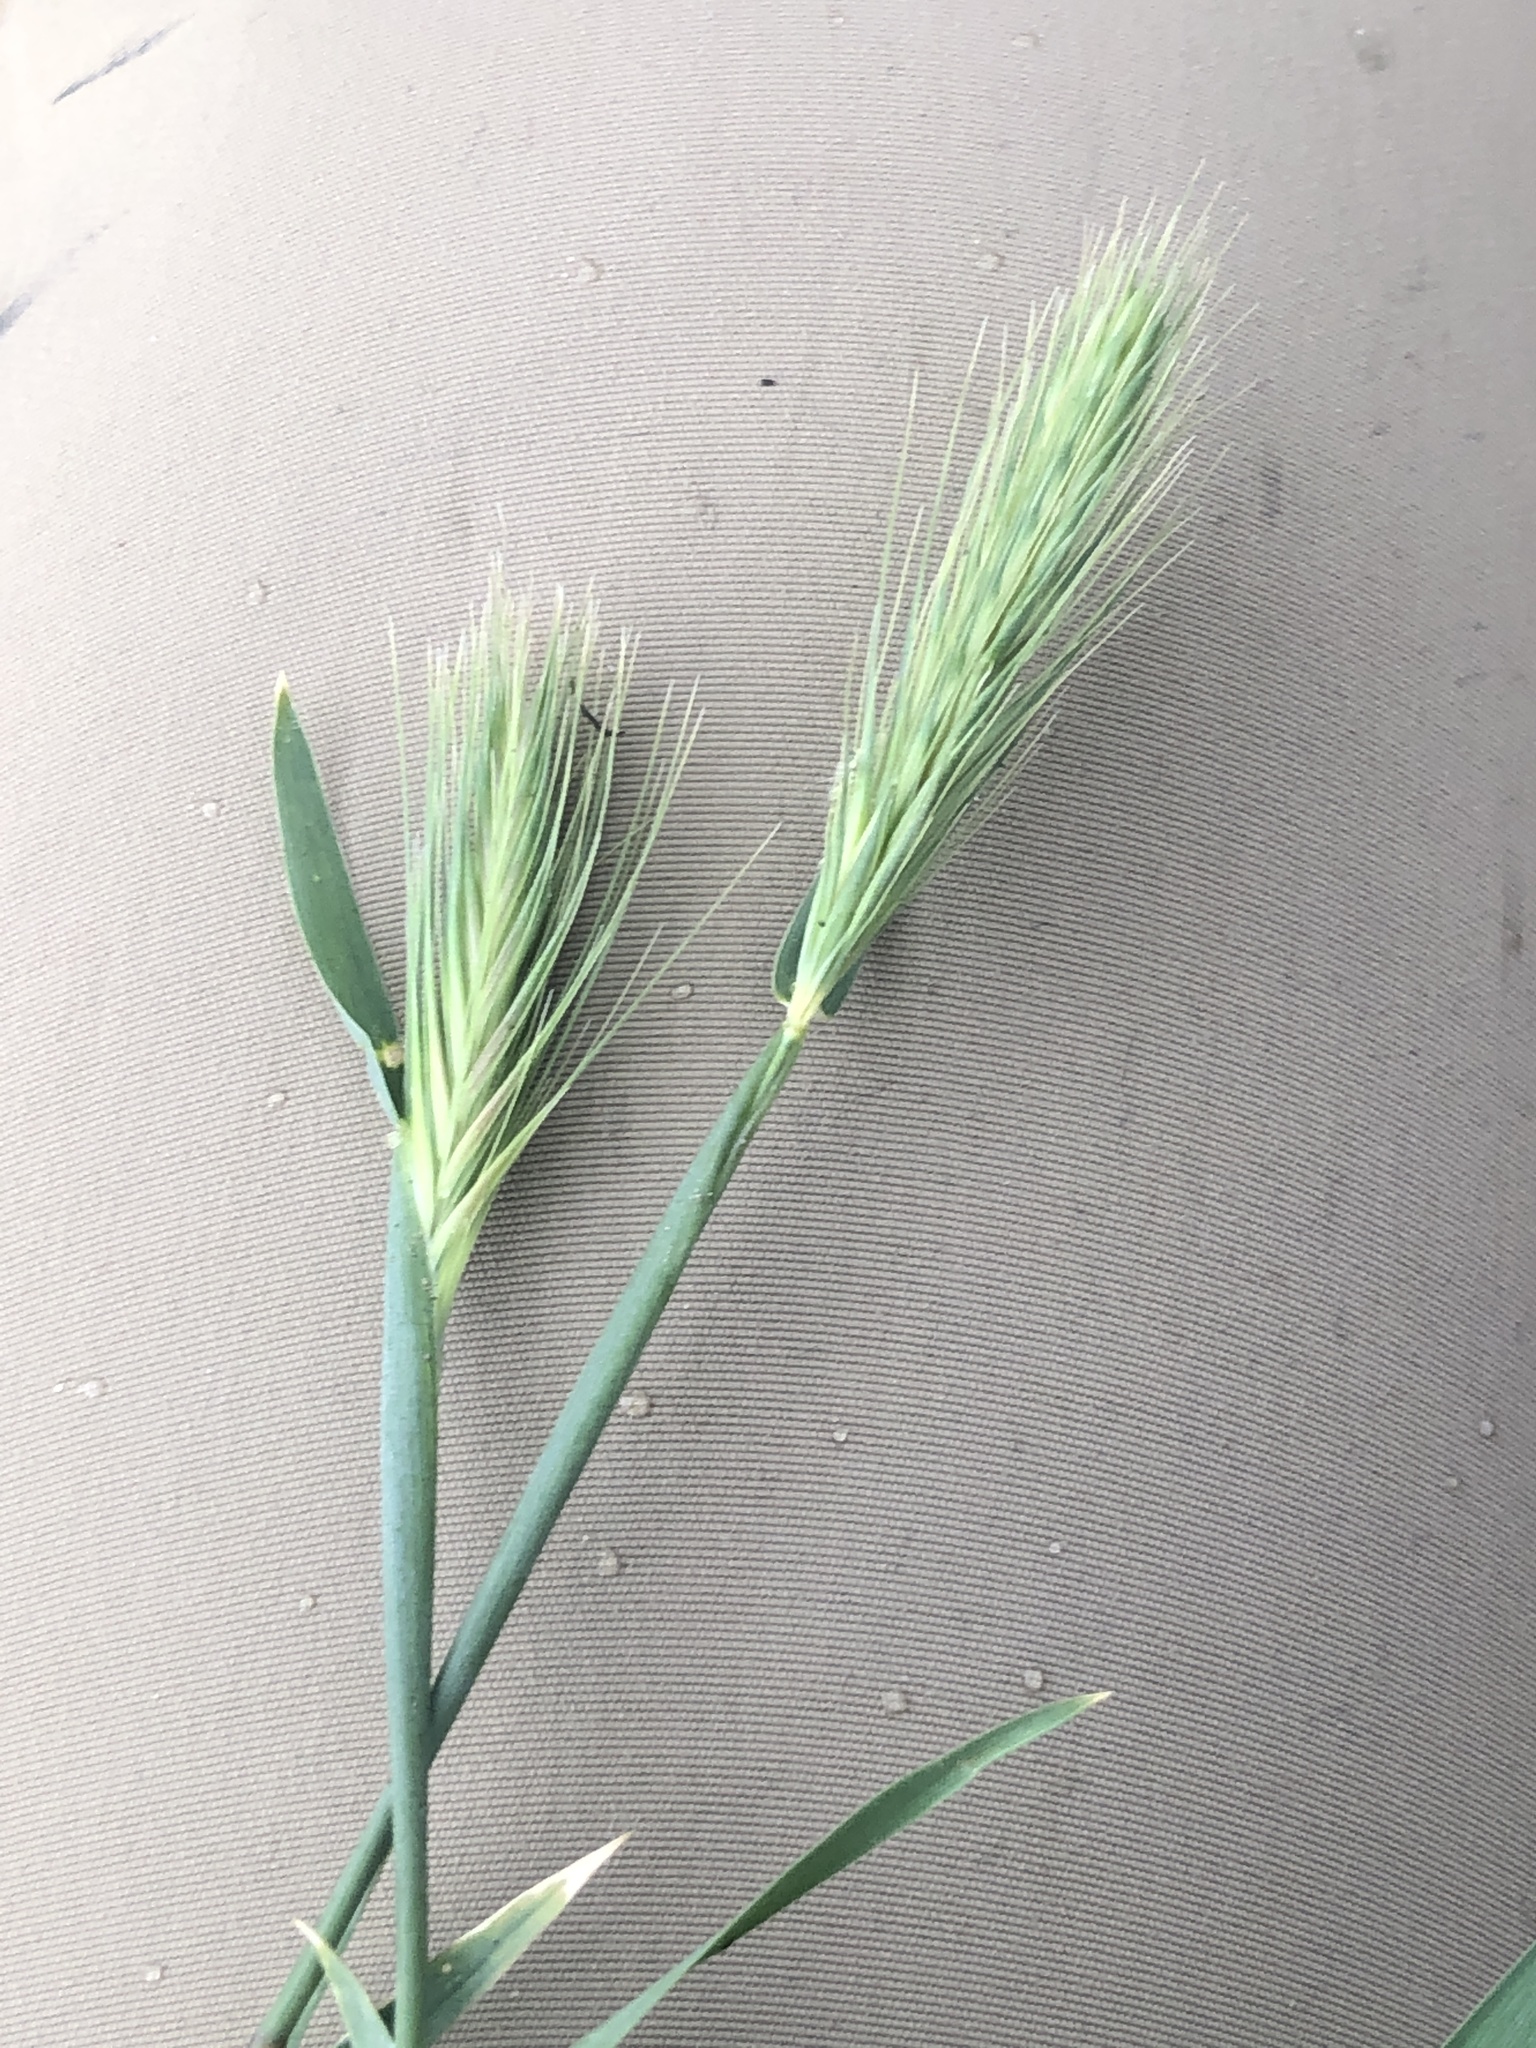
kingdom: Plantae
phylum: Tracheophyta
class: Liliopsida
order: Poales
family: Poaceae
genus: Hordeum
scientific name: Hordeum murinum
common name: Wall barley
